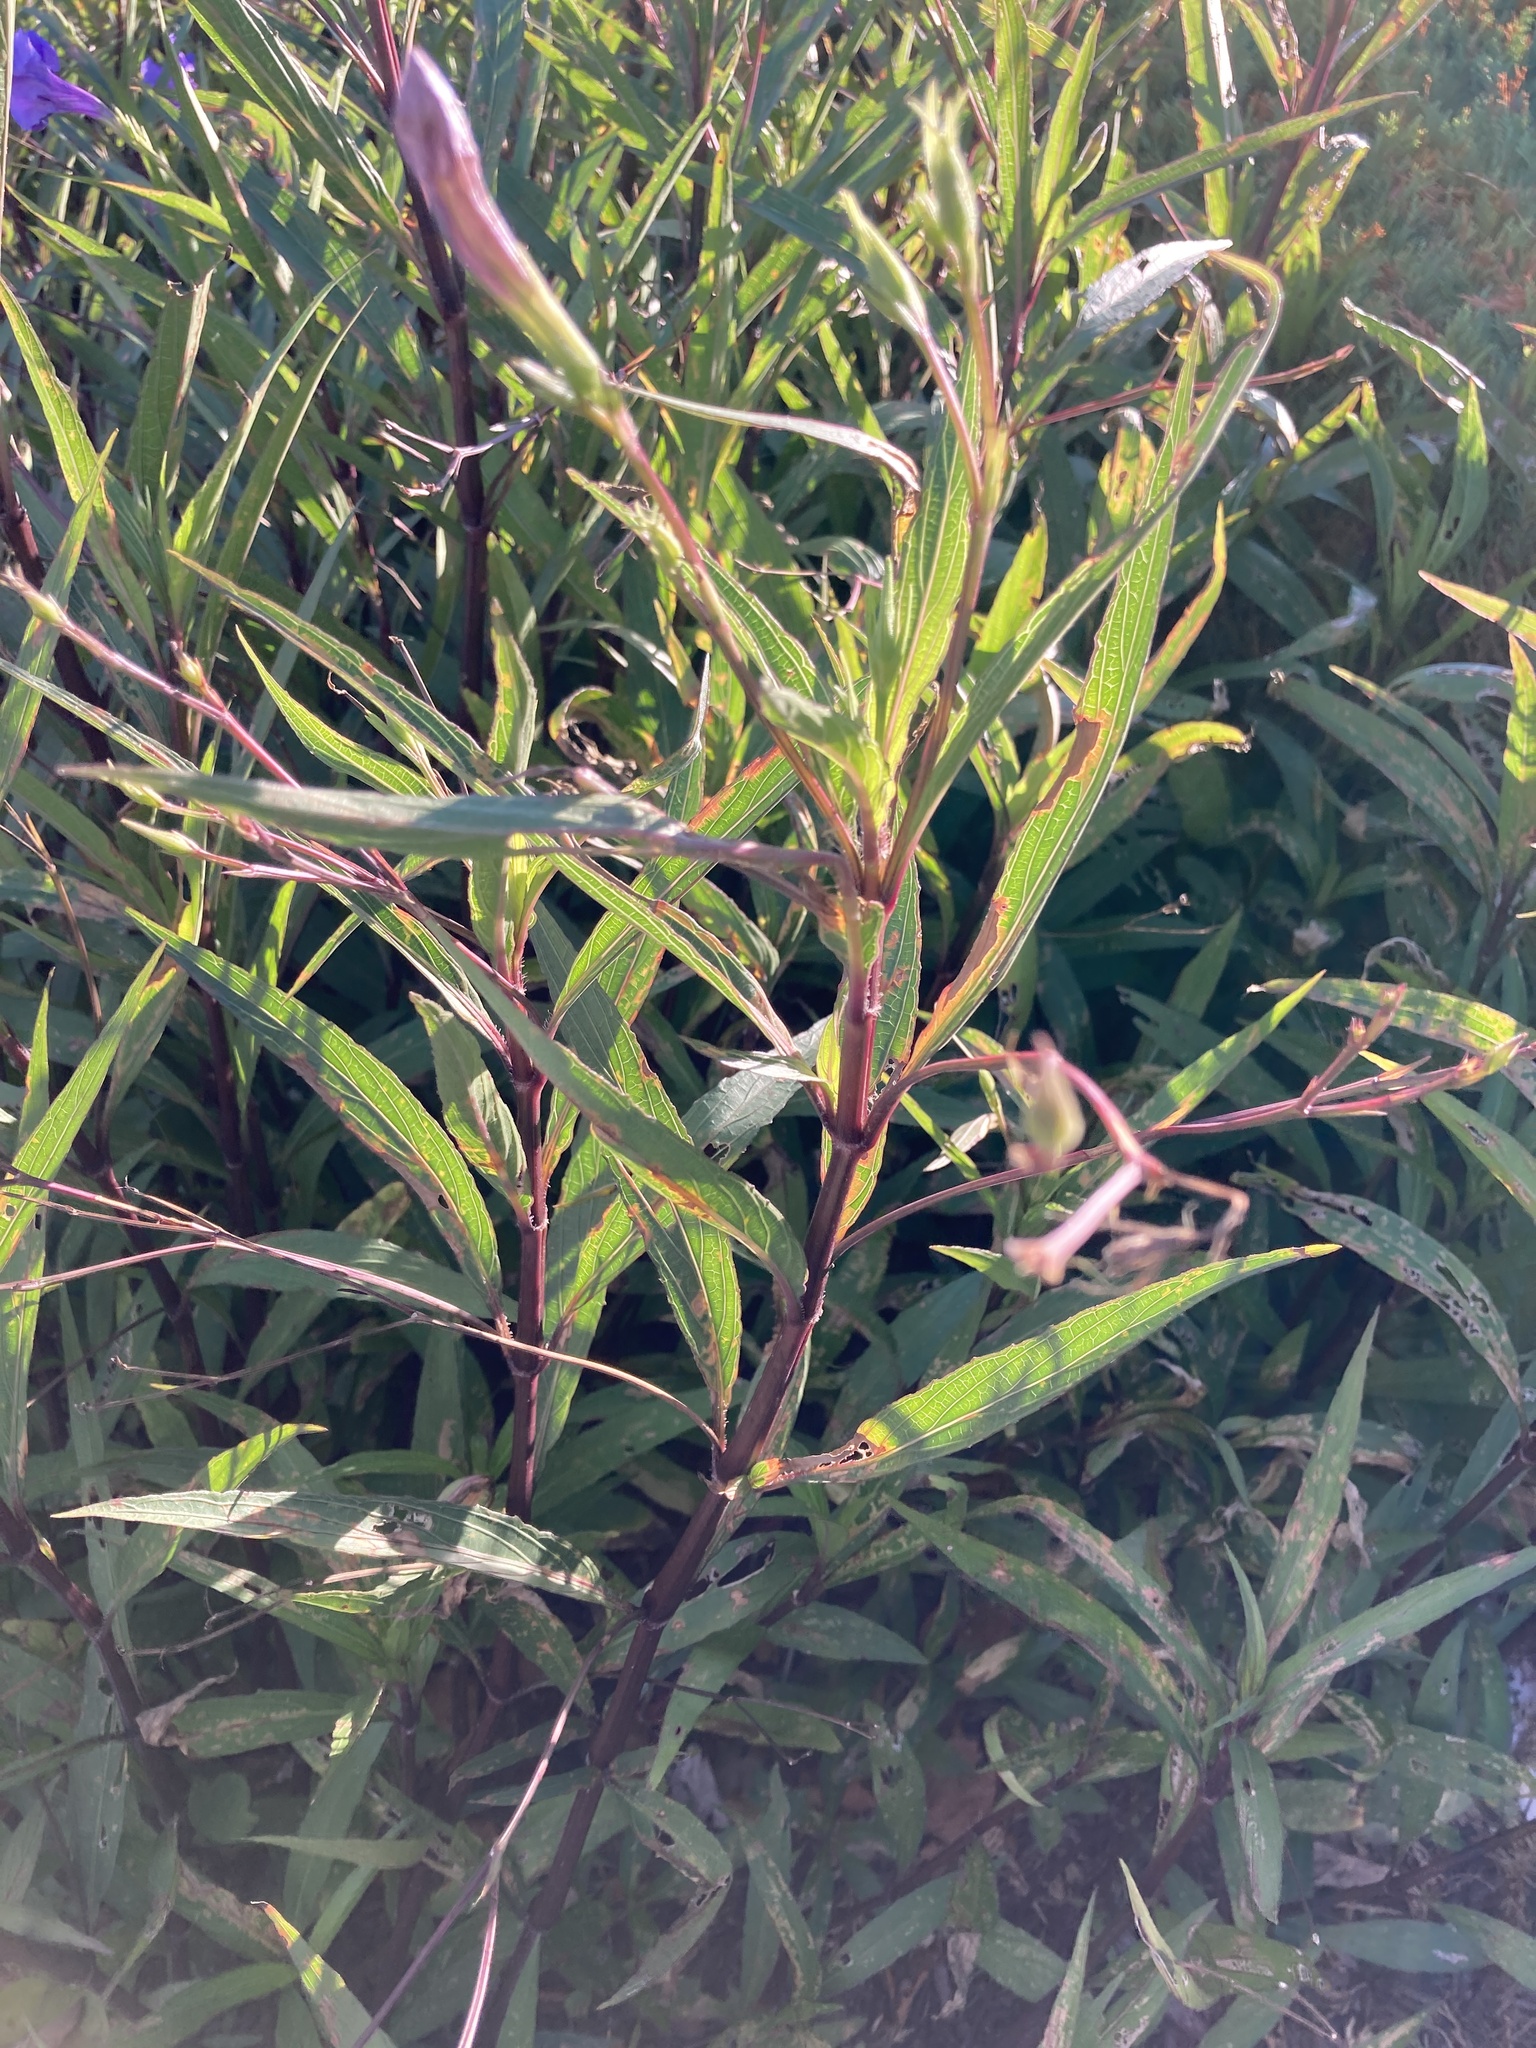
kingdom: Plantae
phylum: Tracheophyta
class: Magnoliopsida
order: Lamiales
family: Acanthaceae
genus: Ruellia
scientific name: Ruellia simplex
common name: Softseed wild petunia
